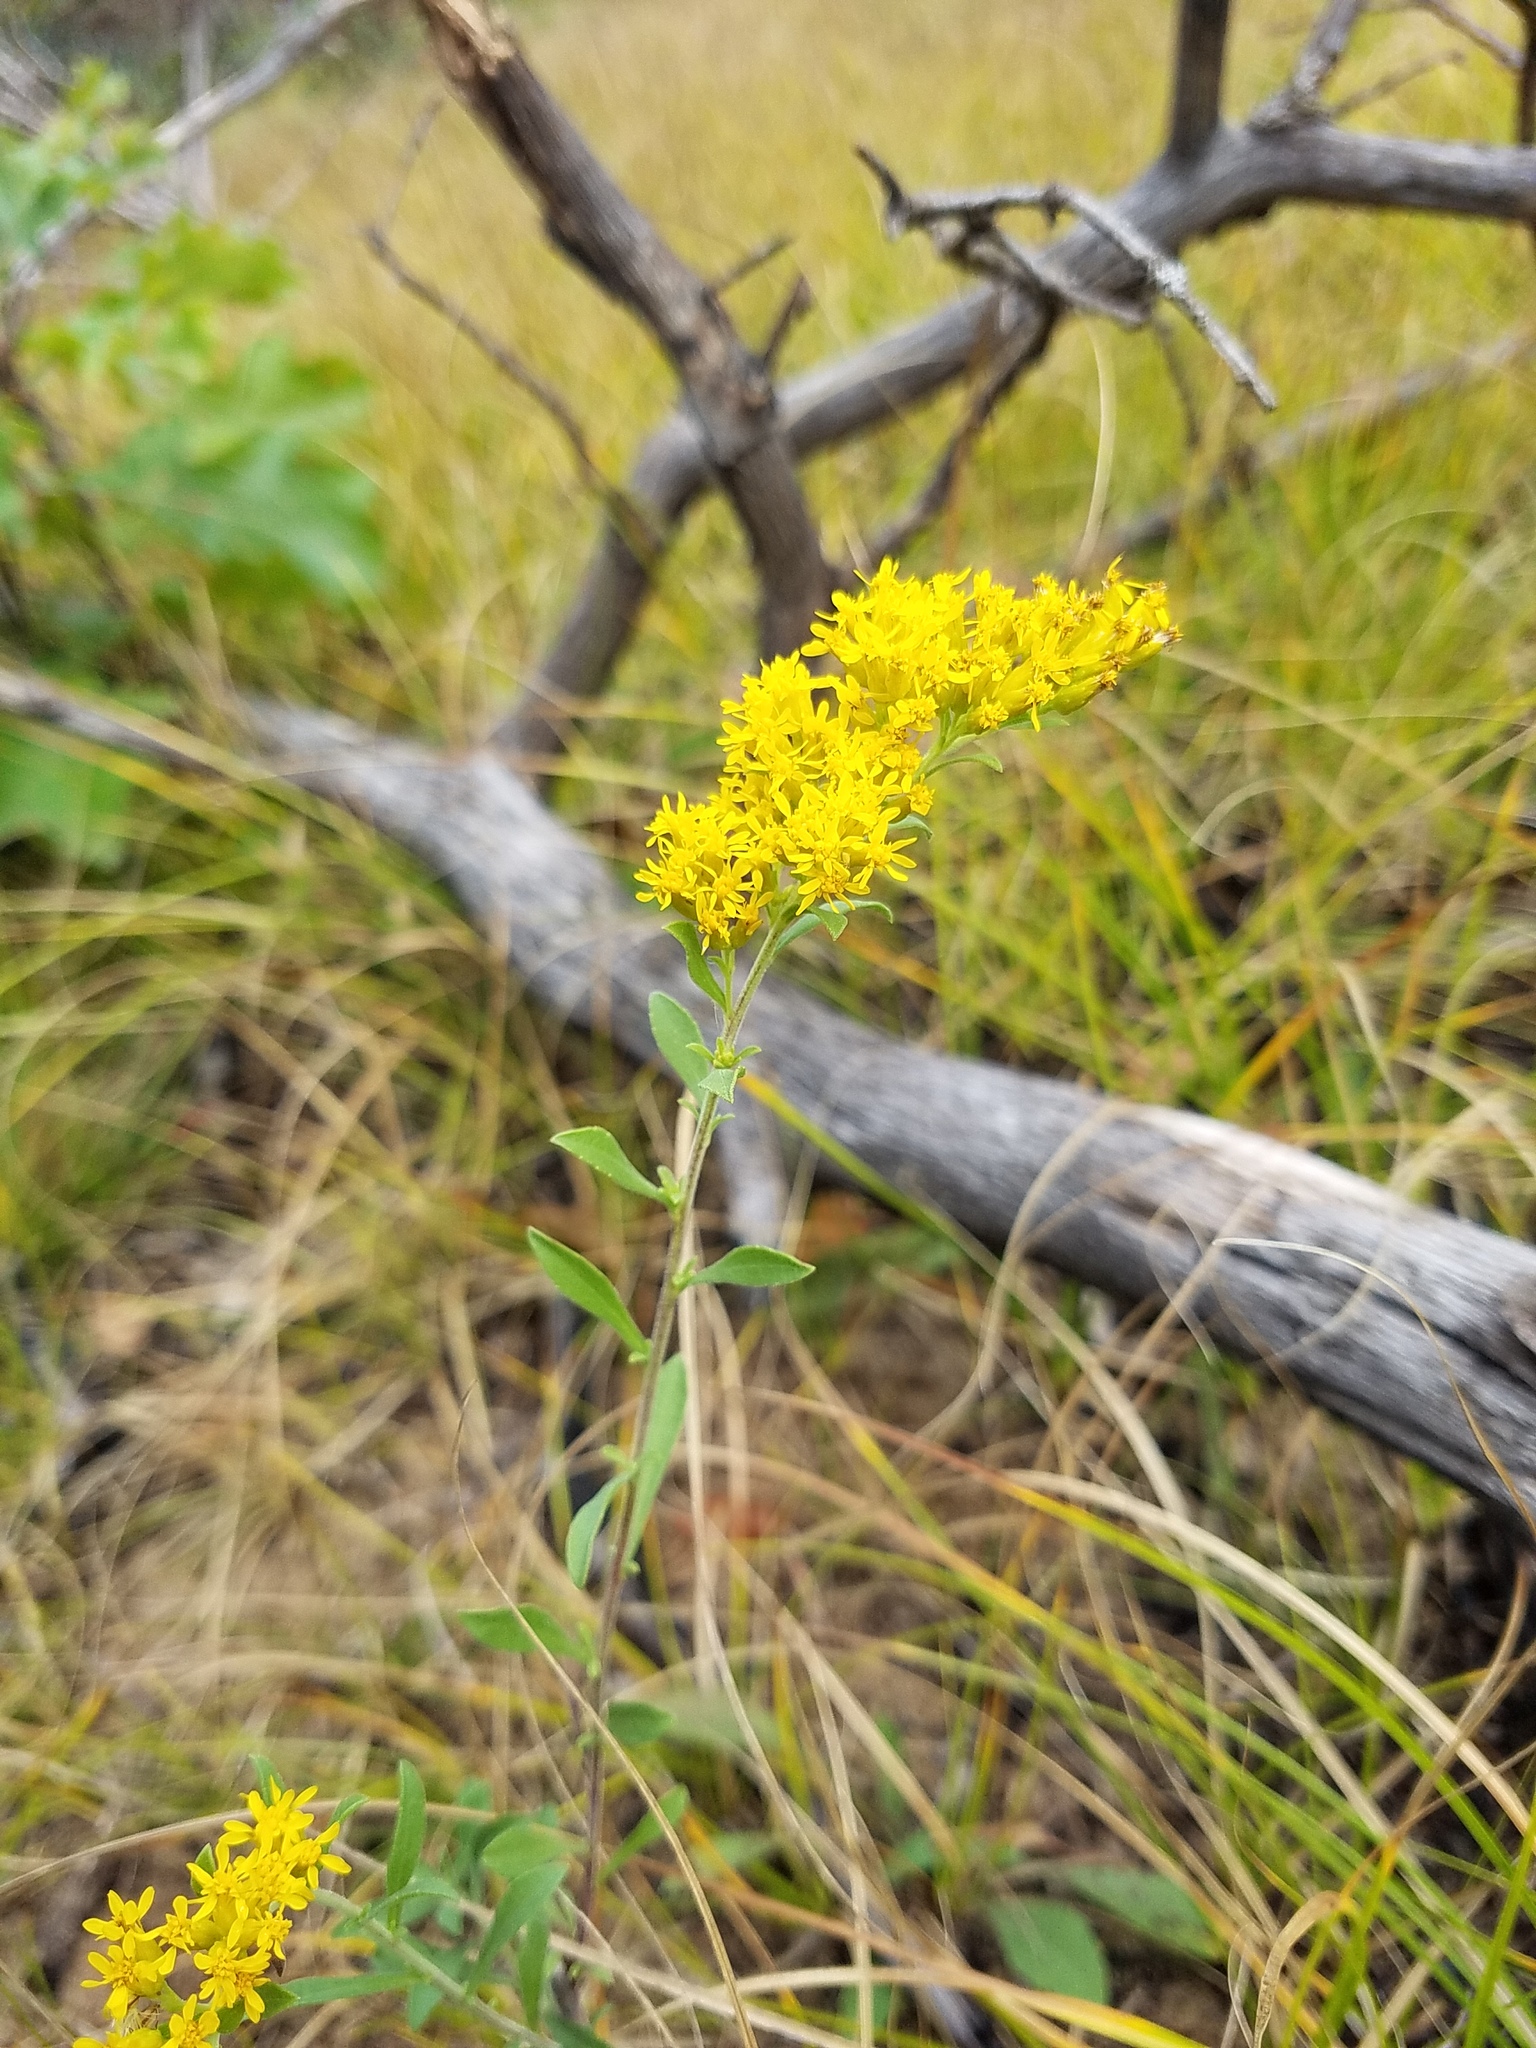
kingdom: Plantae
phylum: Tracheophyta
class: Magnoliopsida
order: Asterales
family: Asteraceae
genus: Solidago
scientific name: Solidago nemoralis
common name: Grey goldenrod
